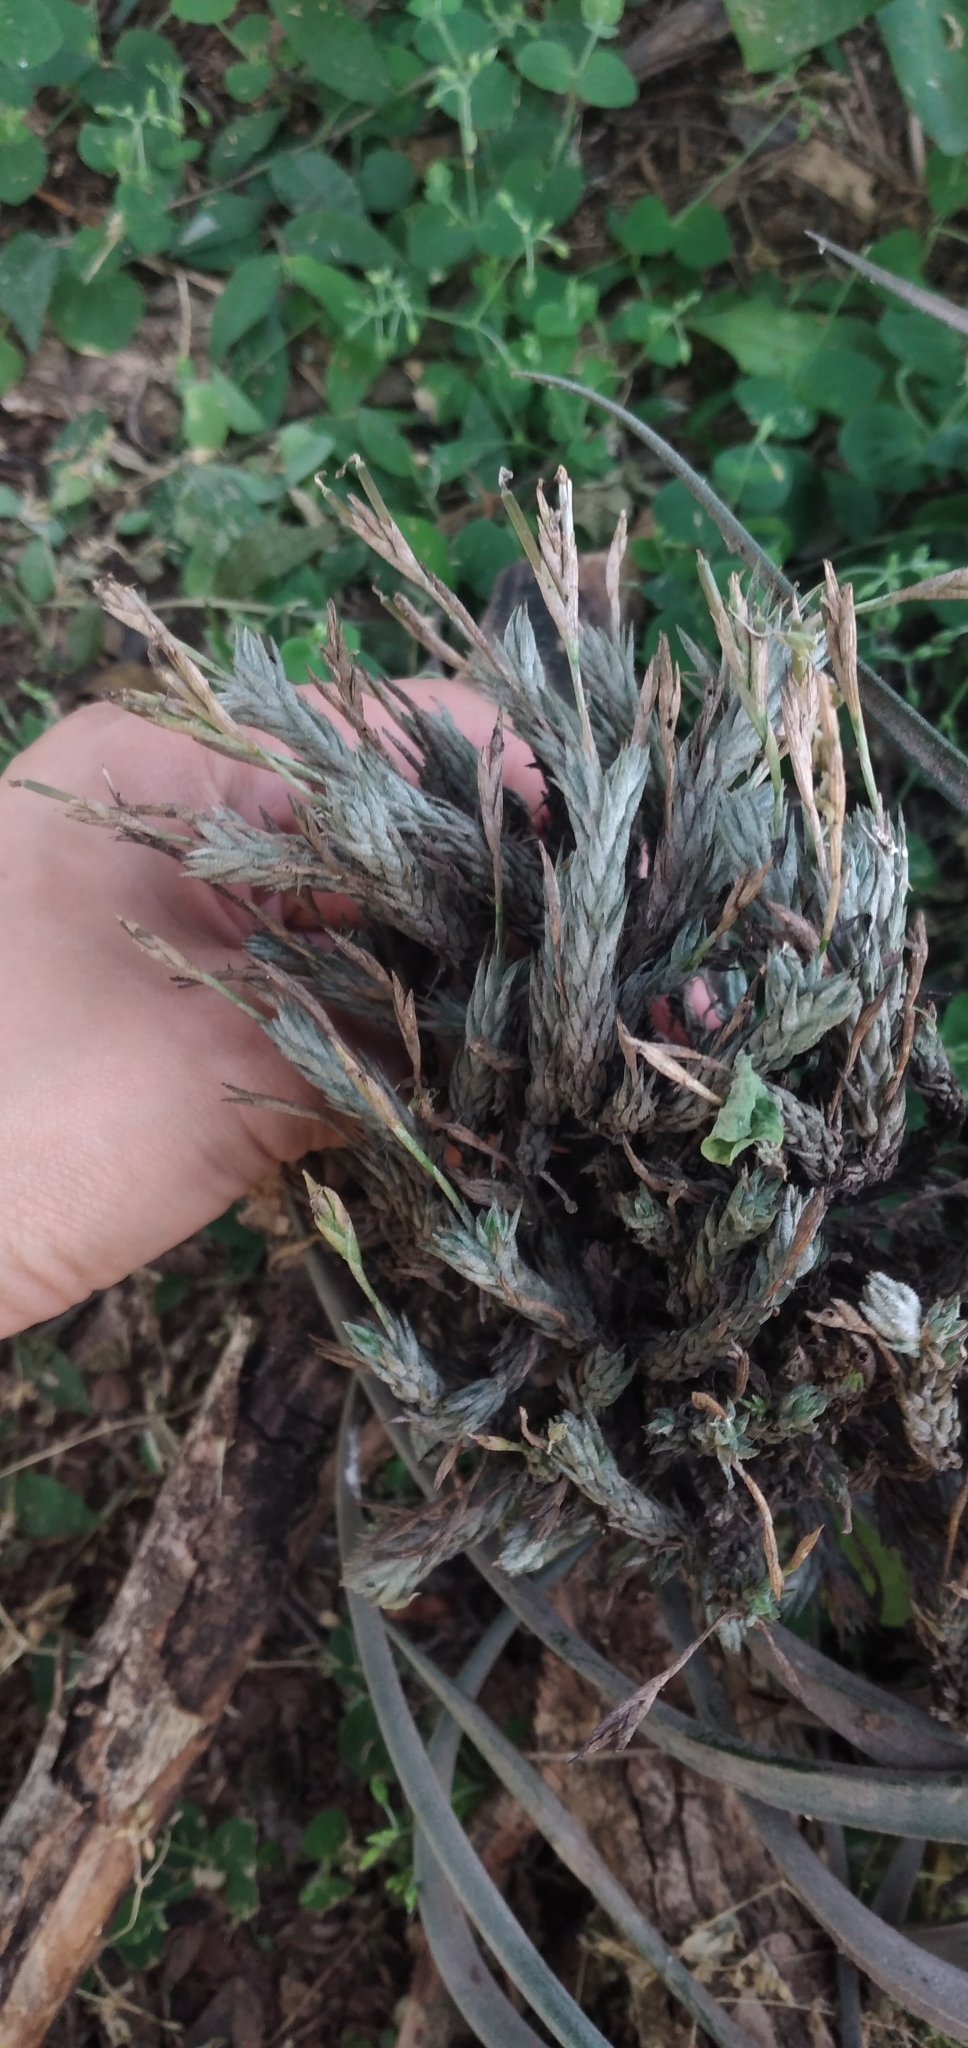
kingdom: Plantae
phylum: Tracheophyta
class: Liliopsida
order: Poales
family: Bromeliaceae
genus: Tillandsia
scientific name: Tillandsia tricholepis
